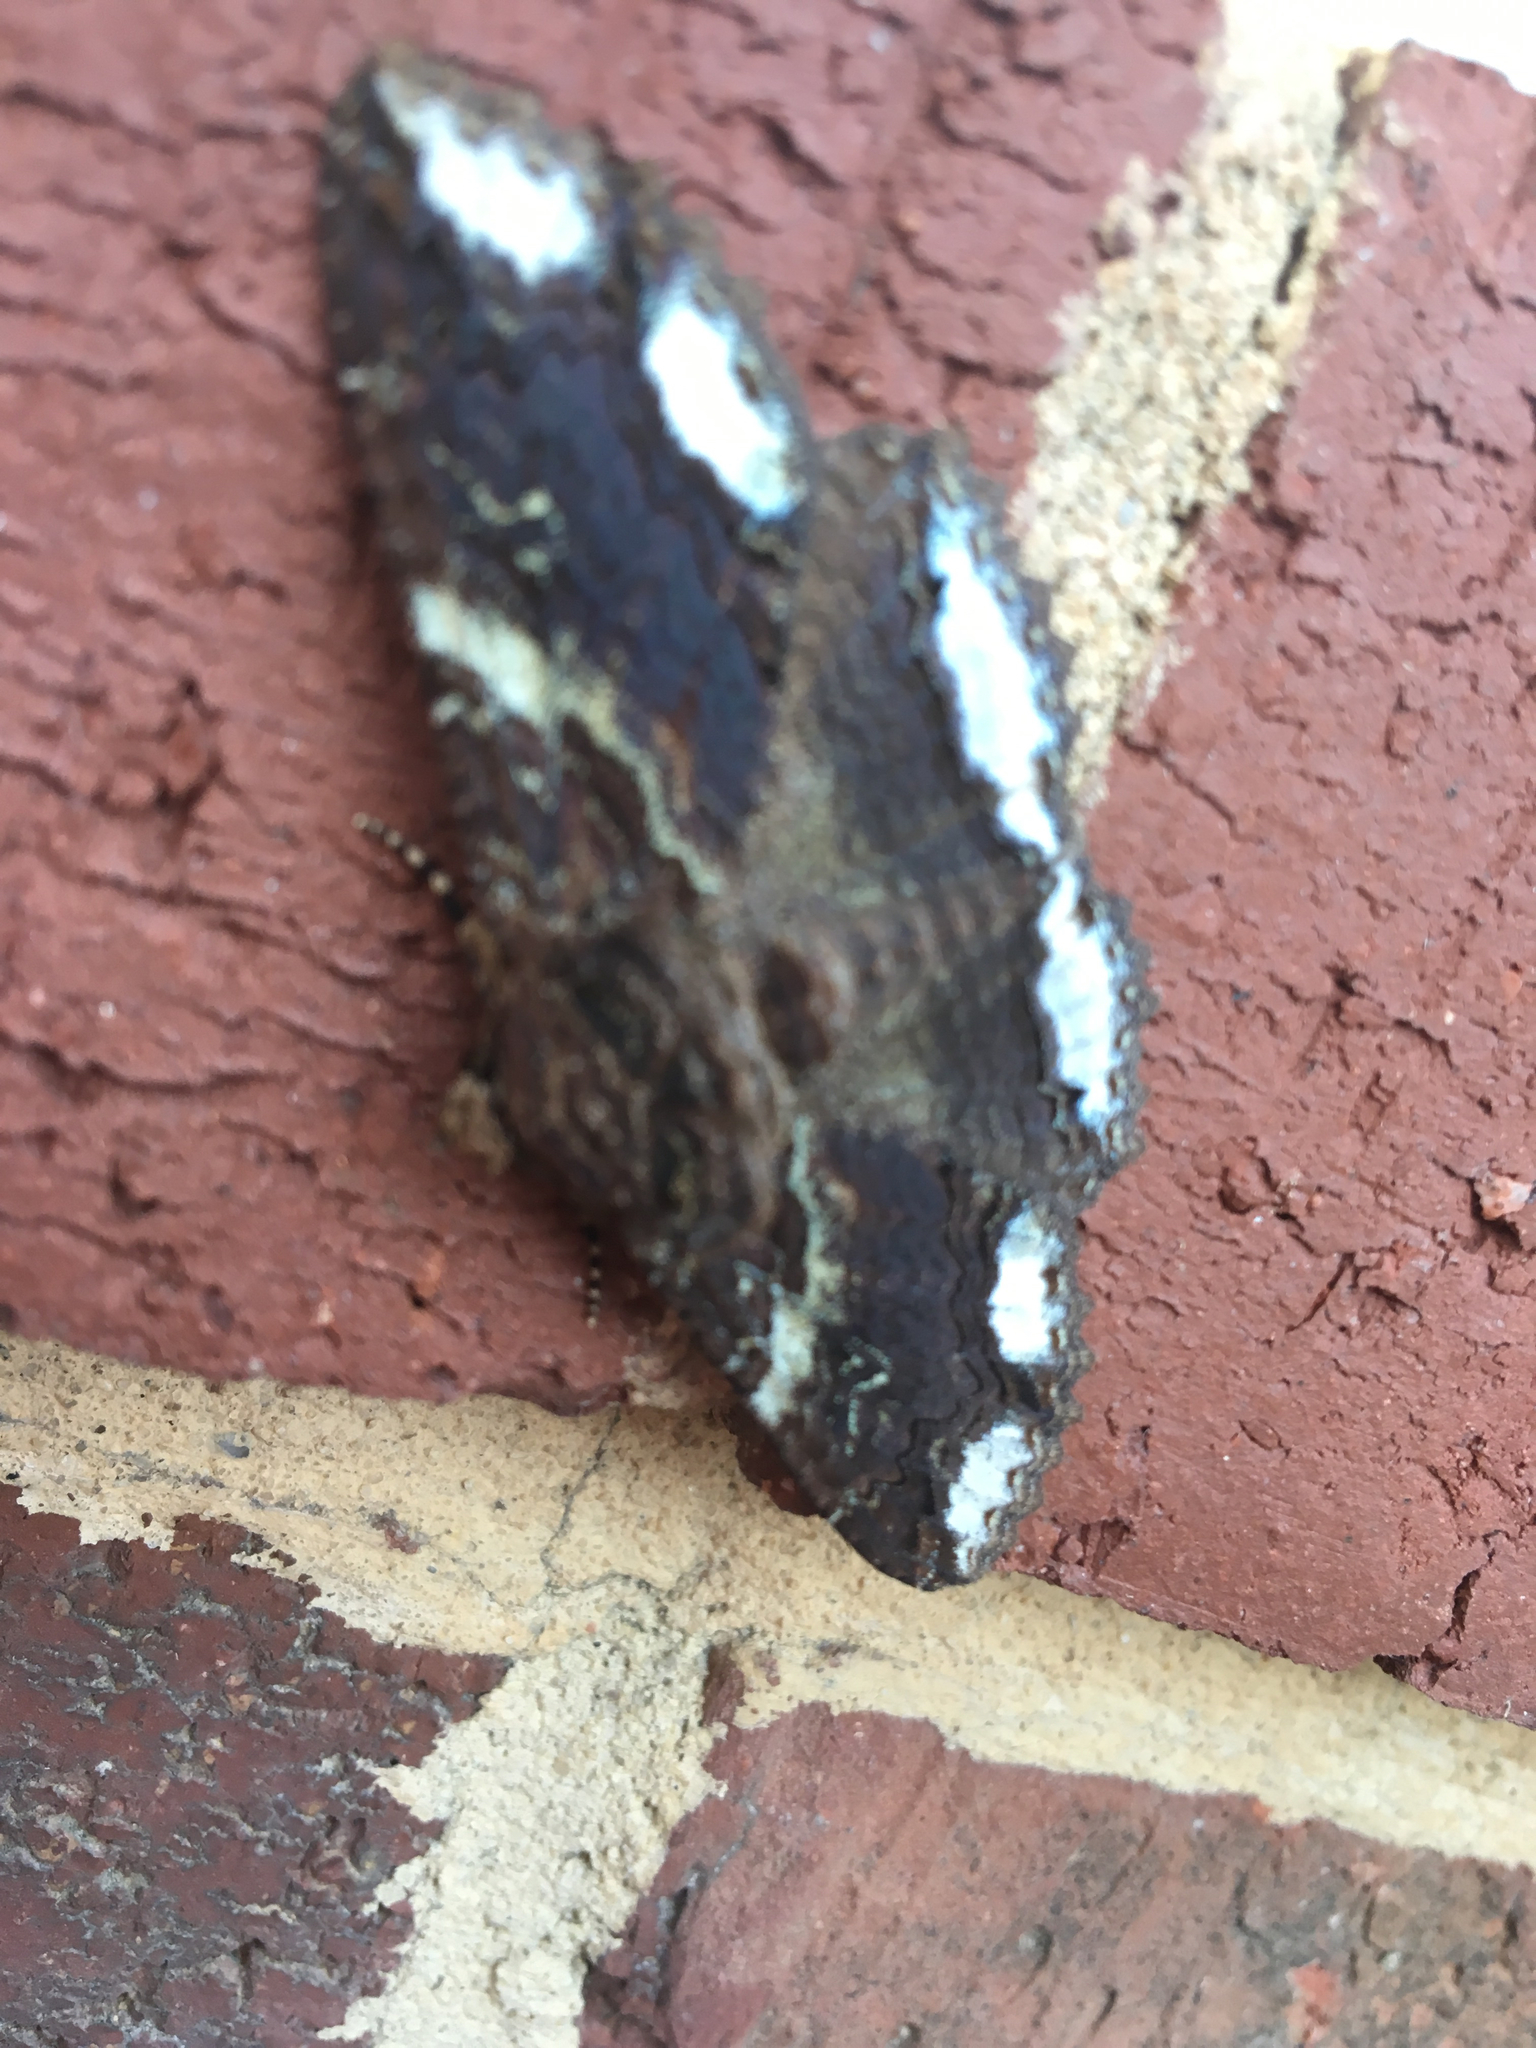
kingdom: Animalia
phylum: Arthropoda
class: Insecta
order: Lepidoptera
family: Erebidae
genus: Zale
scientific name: Zale lunata
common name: Lunate zale moth
